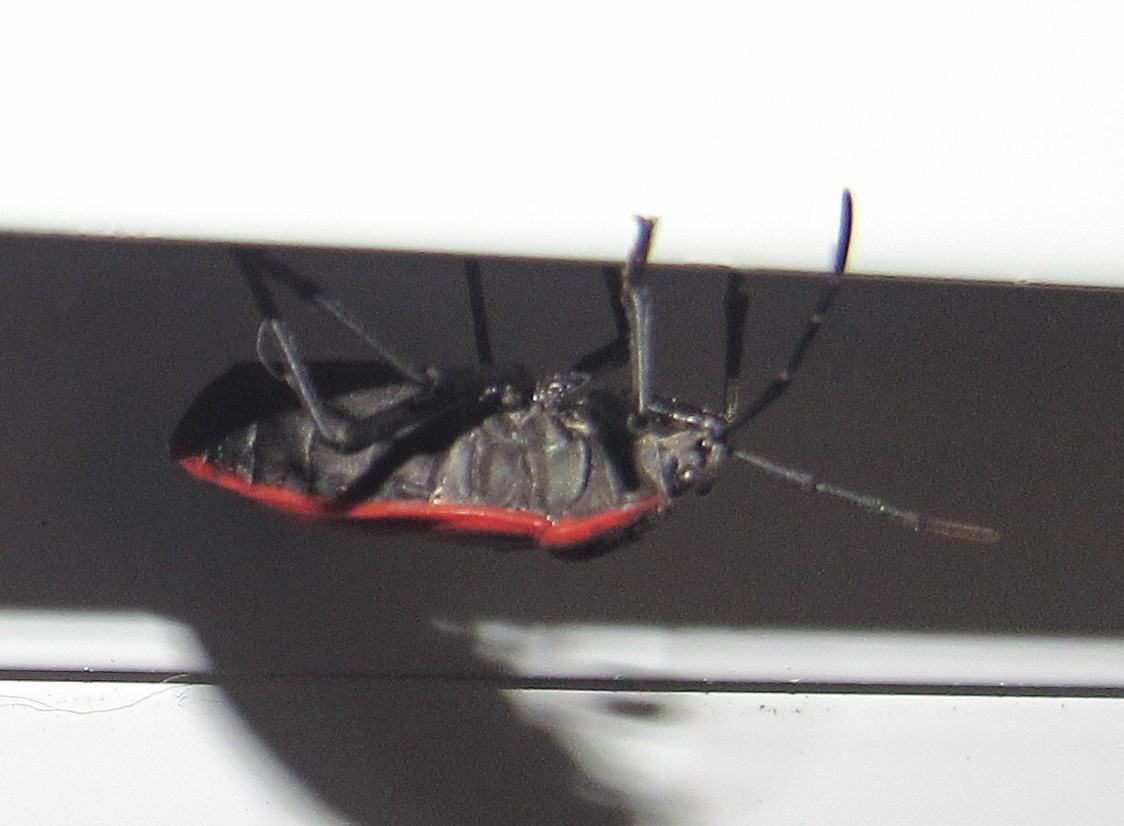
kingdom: Animalia
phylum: Arthropoda
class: Insecta
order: Hemiptera
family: Largidae
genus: Largus
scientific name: Largus rufipennis
